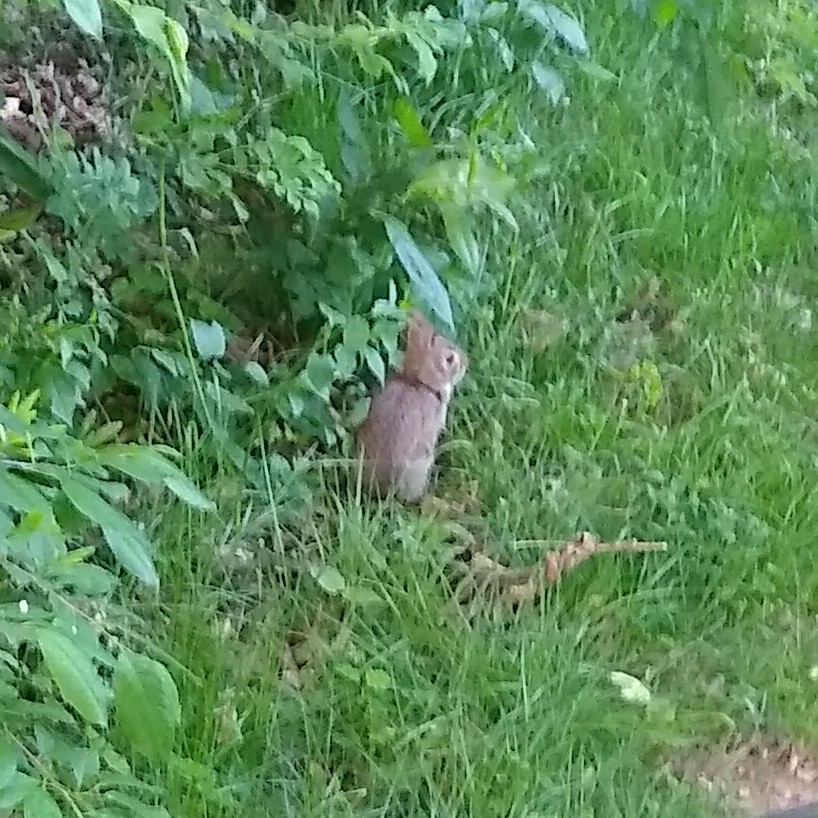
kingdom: Animalia
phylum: Chordata
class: Mammalia
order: Lagomorpha
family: Leporidae
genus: Sylvilagus
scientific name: Sylvilagus floridanus
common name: Eastern cottontail
